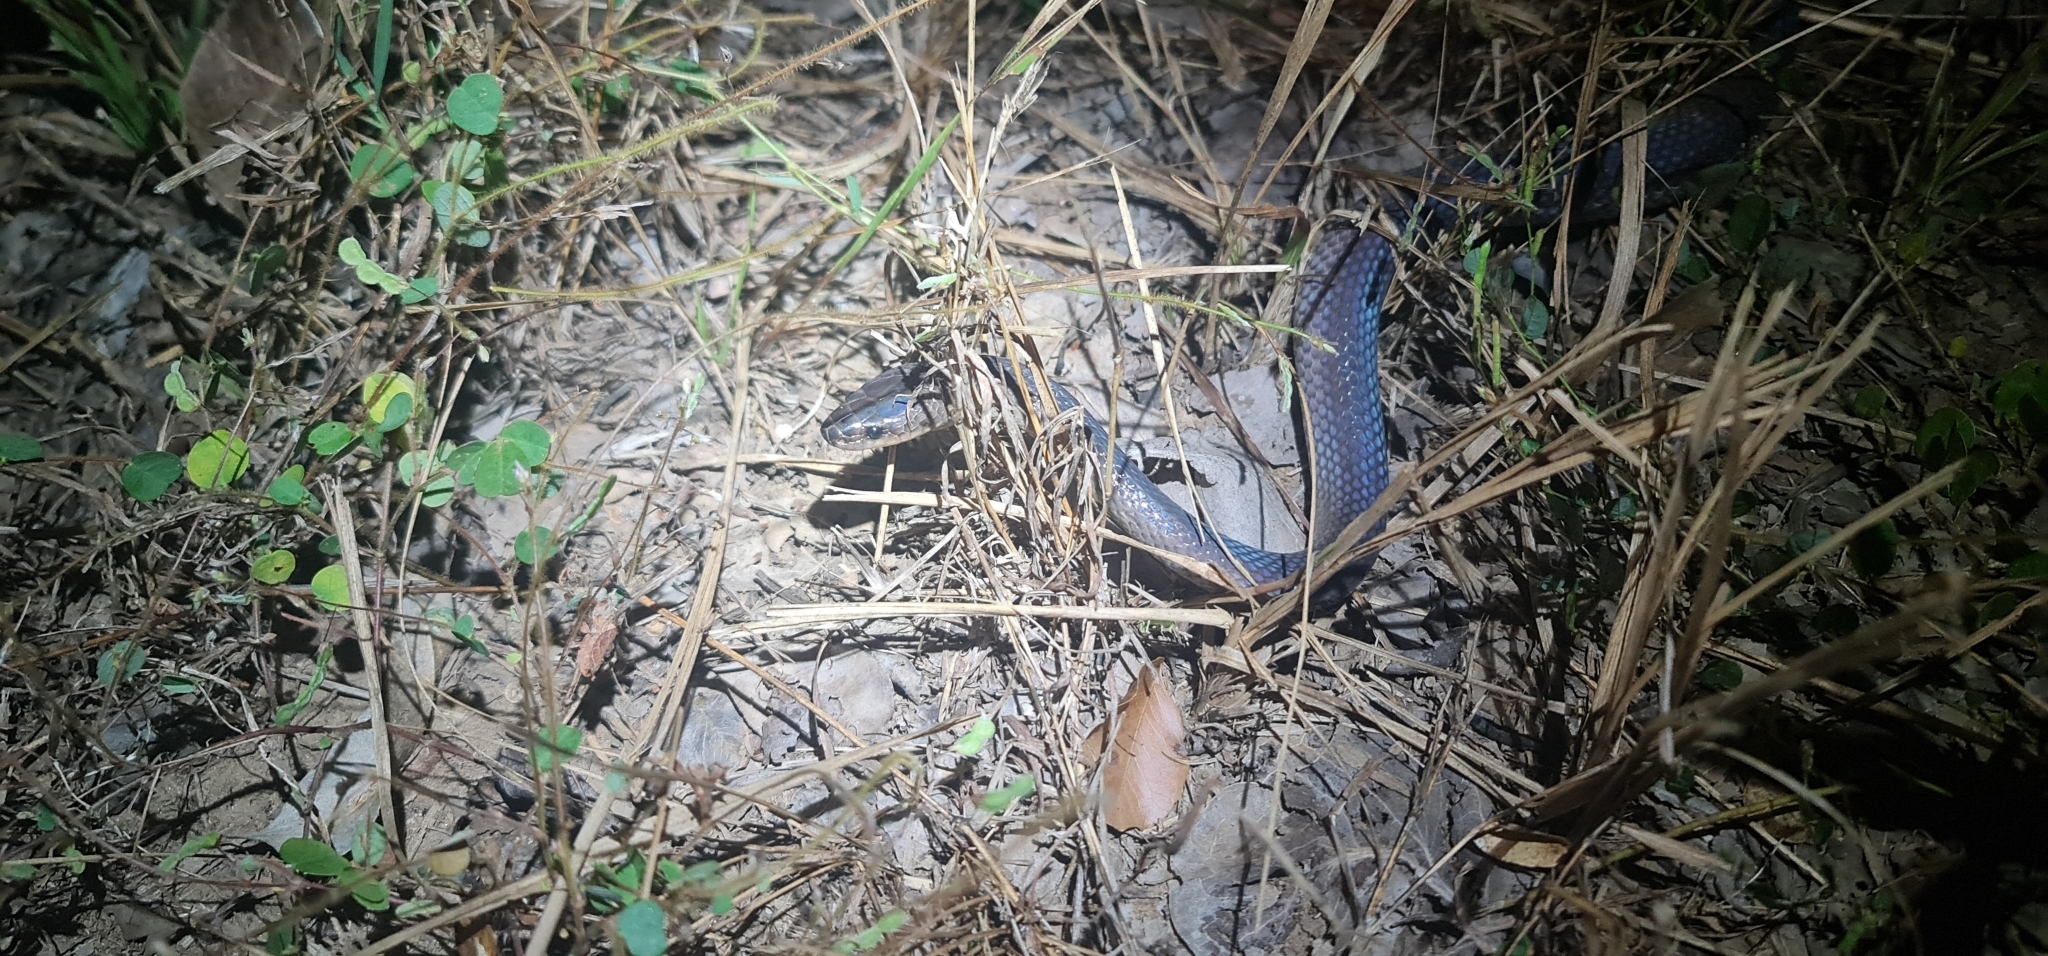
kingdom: Animalia
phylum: Chordata
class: Squamata
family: Colubridae
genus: Stegonotus
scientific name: Stegonotus australis
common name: Australian groundsnake
